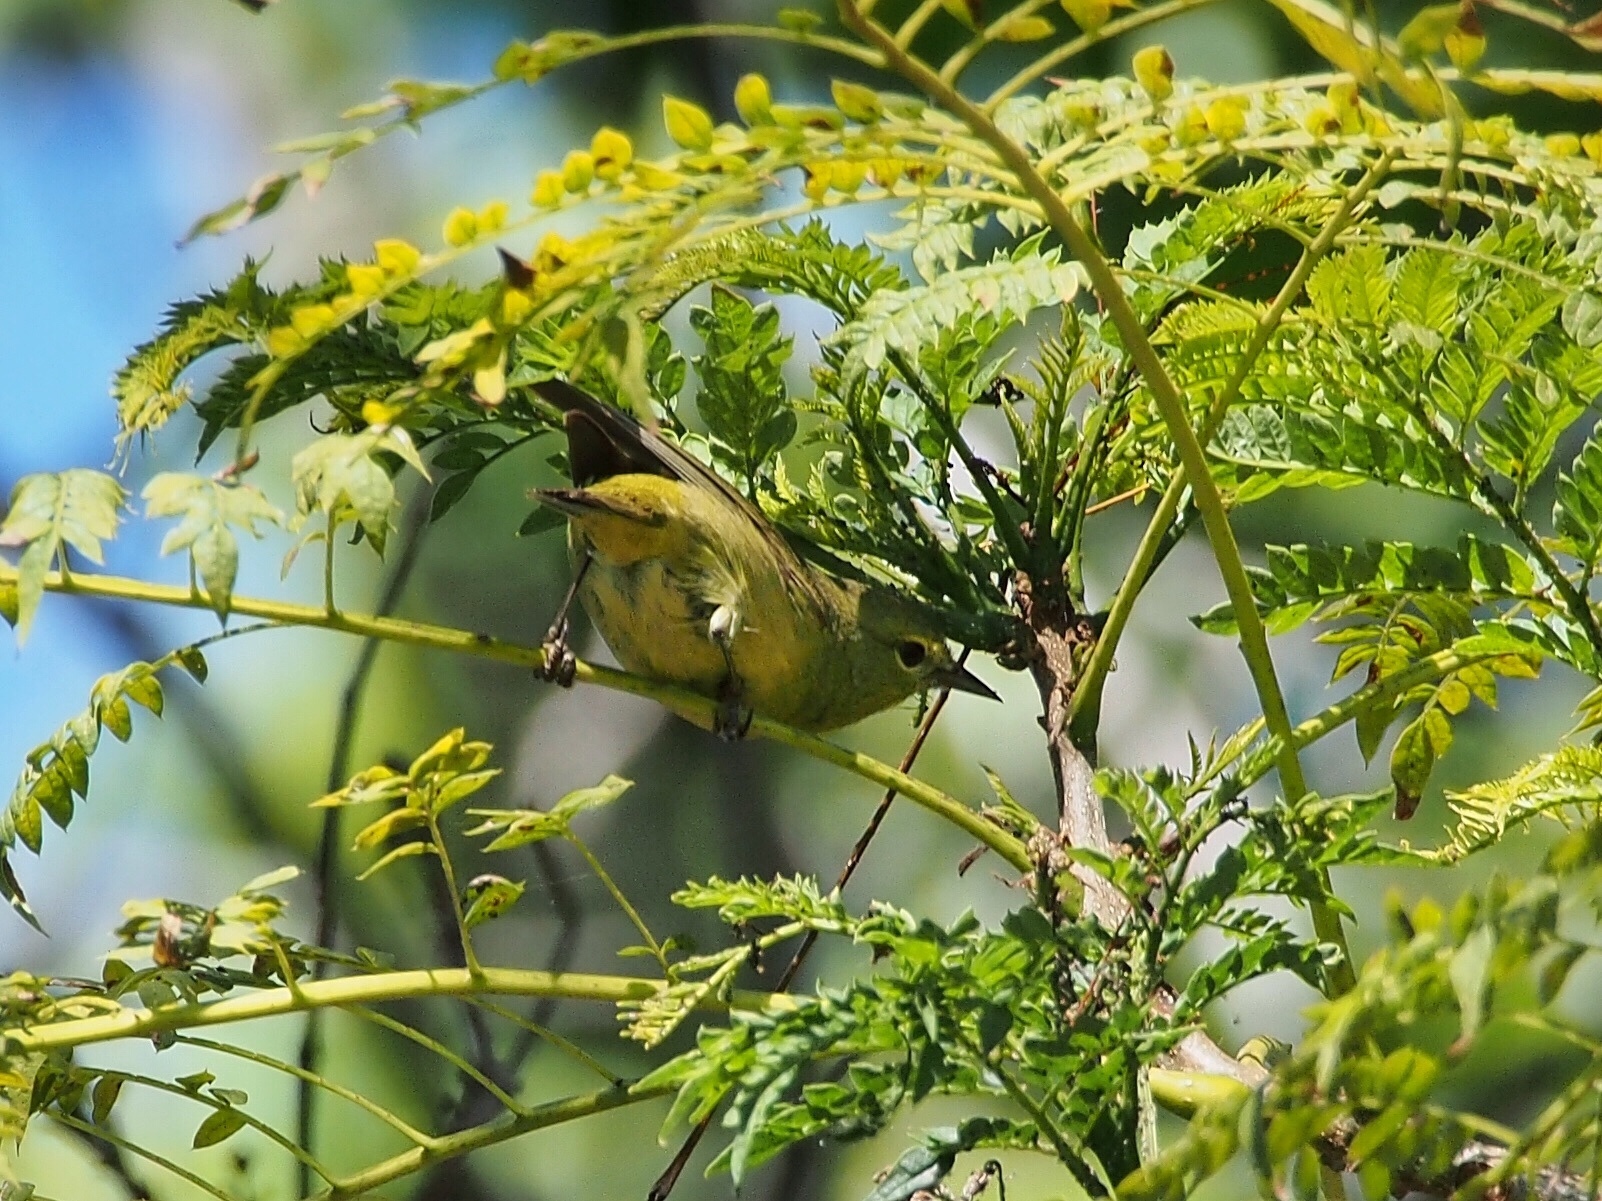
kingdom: Animalia
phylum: Chordata
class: Aves
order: Passeriformes
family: Parulidae
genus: Leiothlypis
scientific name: Leiothlypis celata
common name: Orange-crowned warbler
